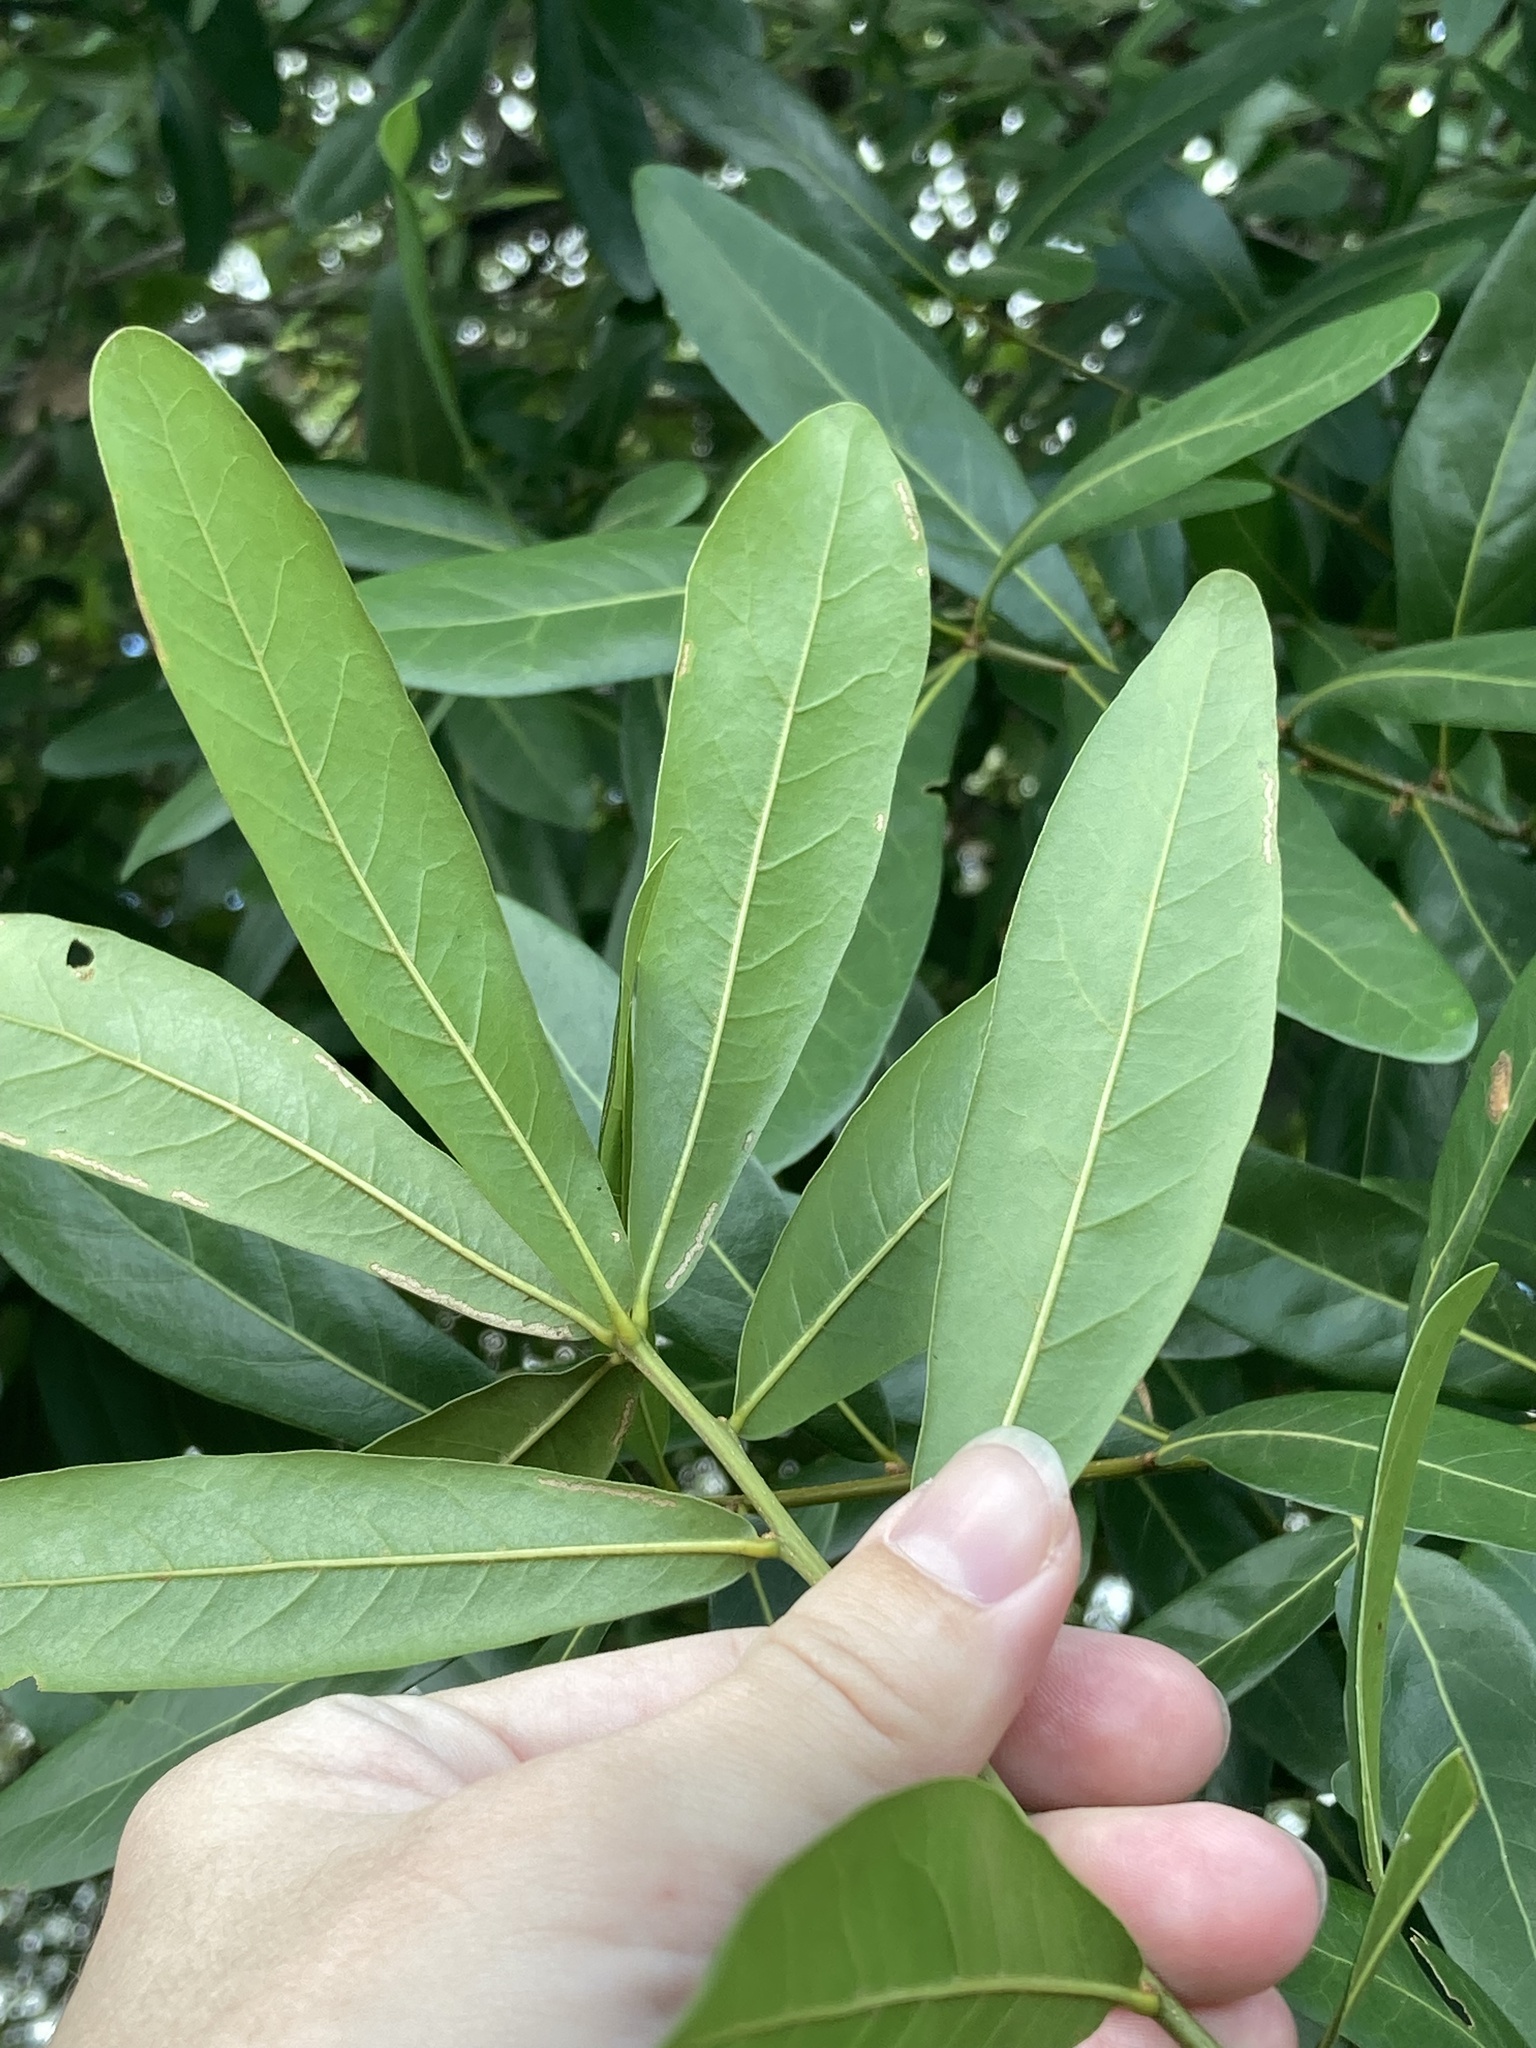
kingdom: Plantae
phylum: Tracheophyta
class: Magnoliopsida
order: Fagales
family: Fagaceae
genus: Quercus
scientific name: Quercus laurifolia
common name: Swamp laurel oak
